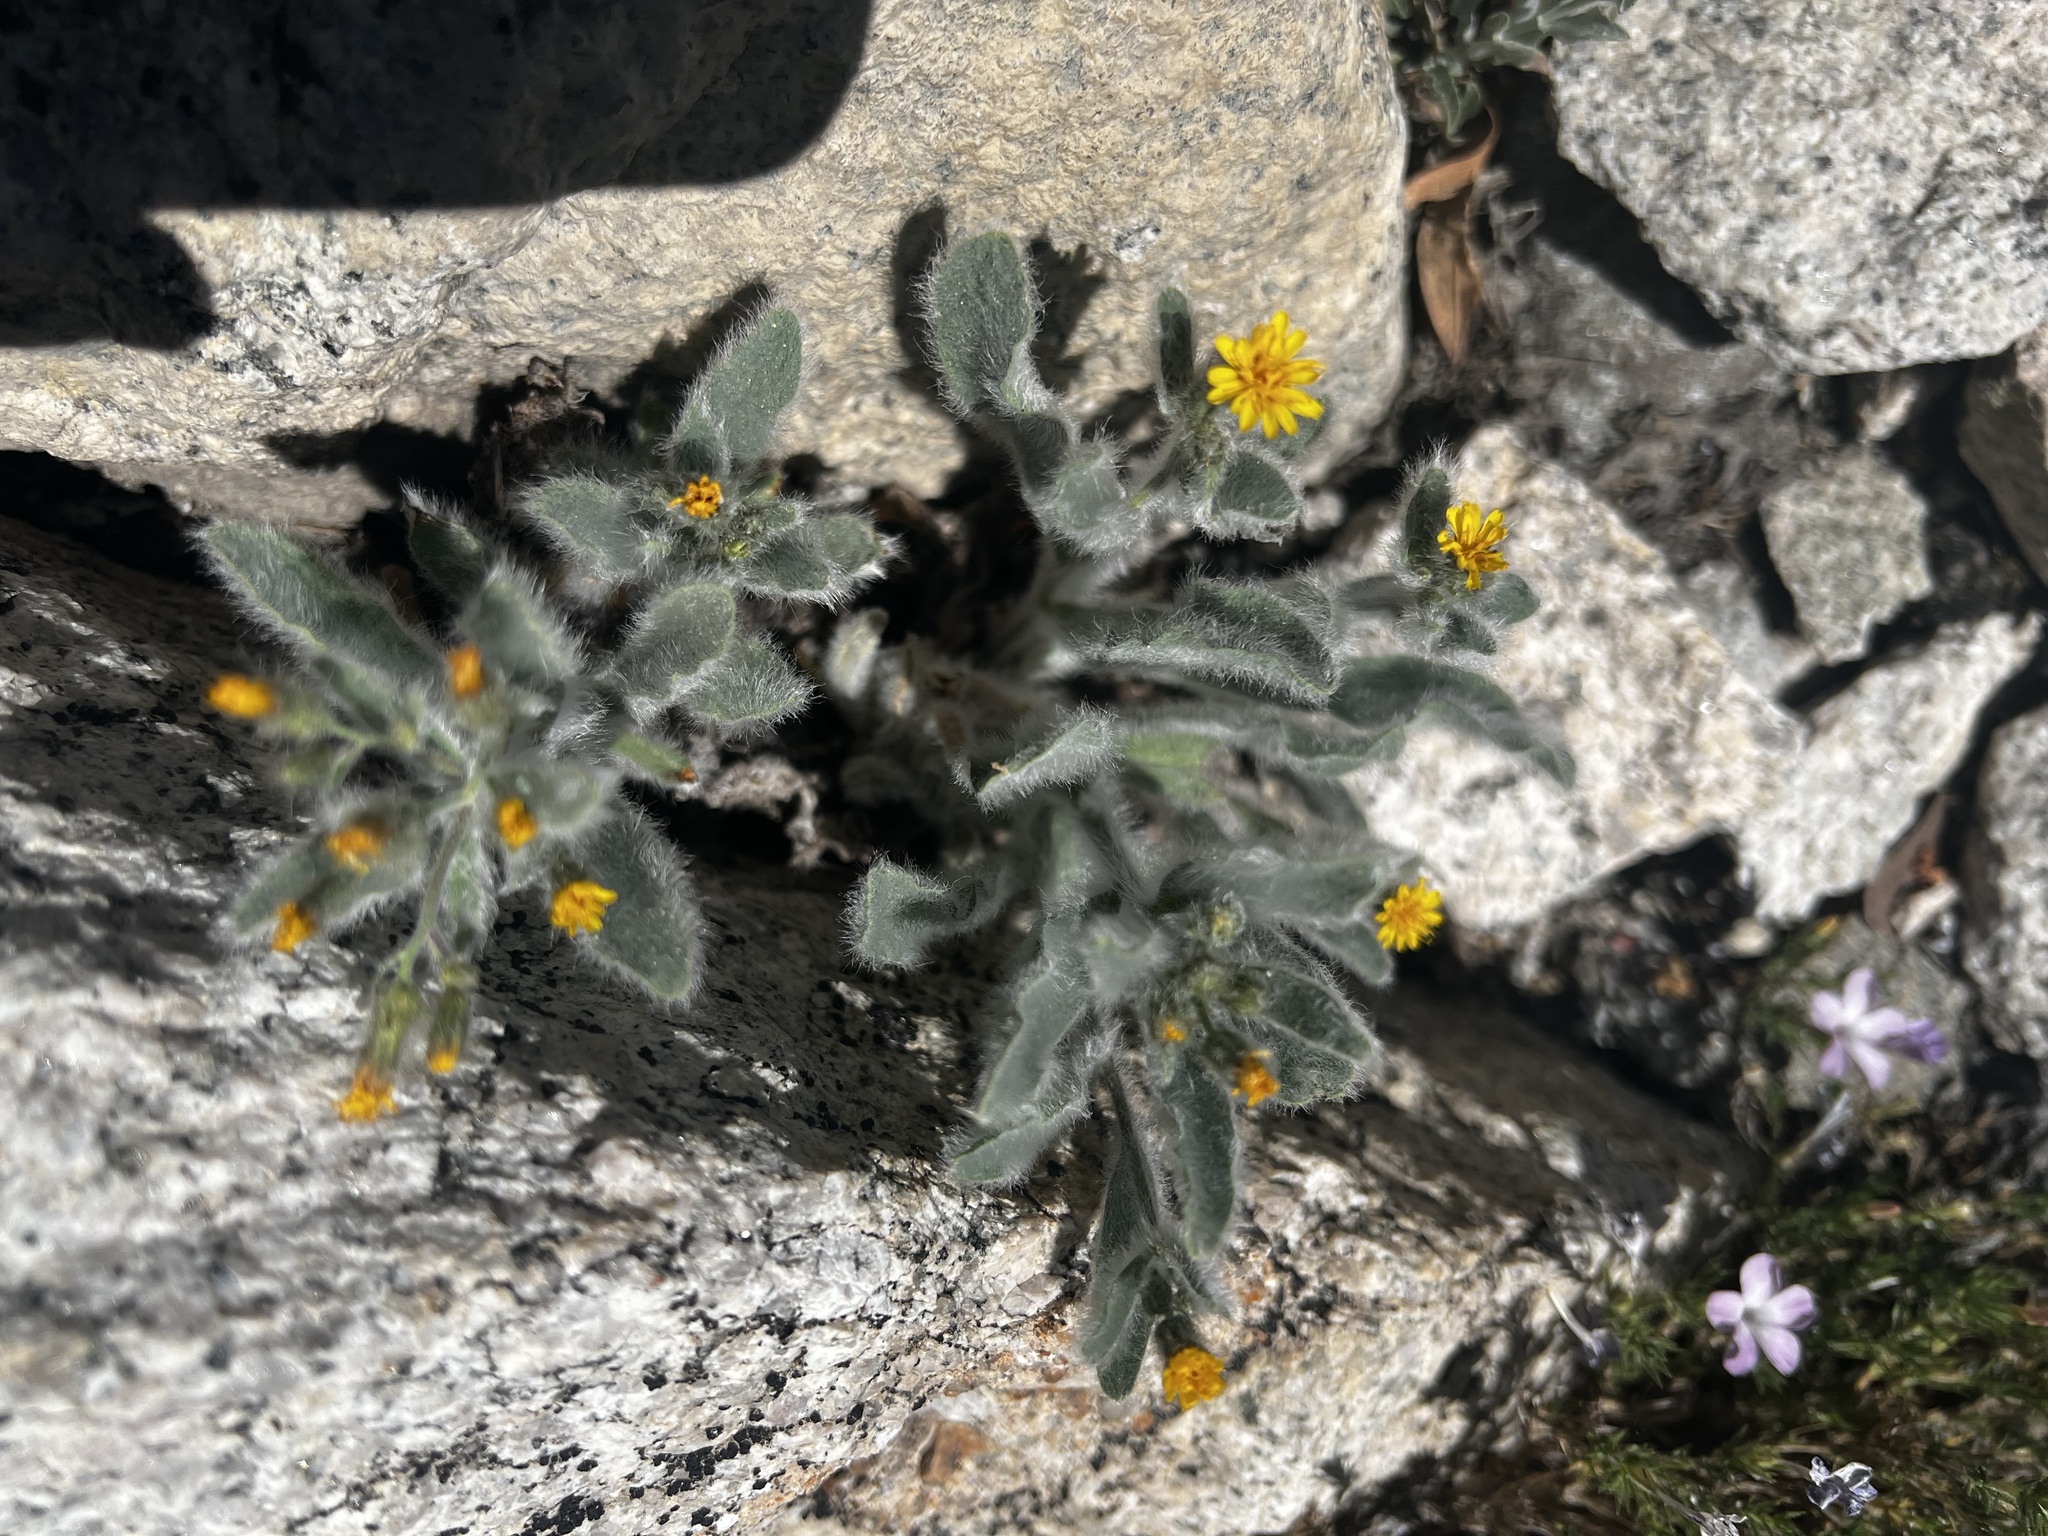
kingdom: Plantae
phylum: Tracheophyta
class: Magnoliopsida
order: Asterales
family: Asteraceae
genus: Hieracium
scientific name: Hieracium horridum
